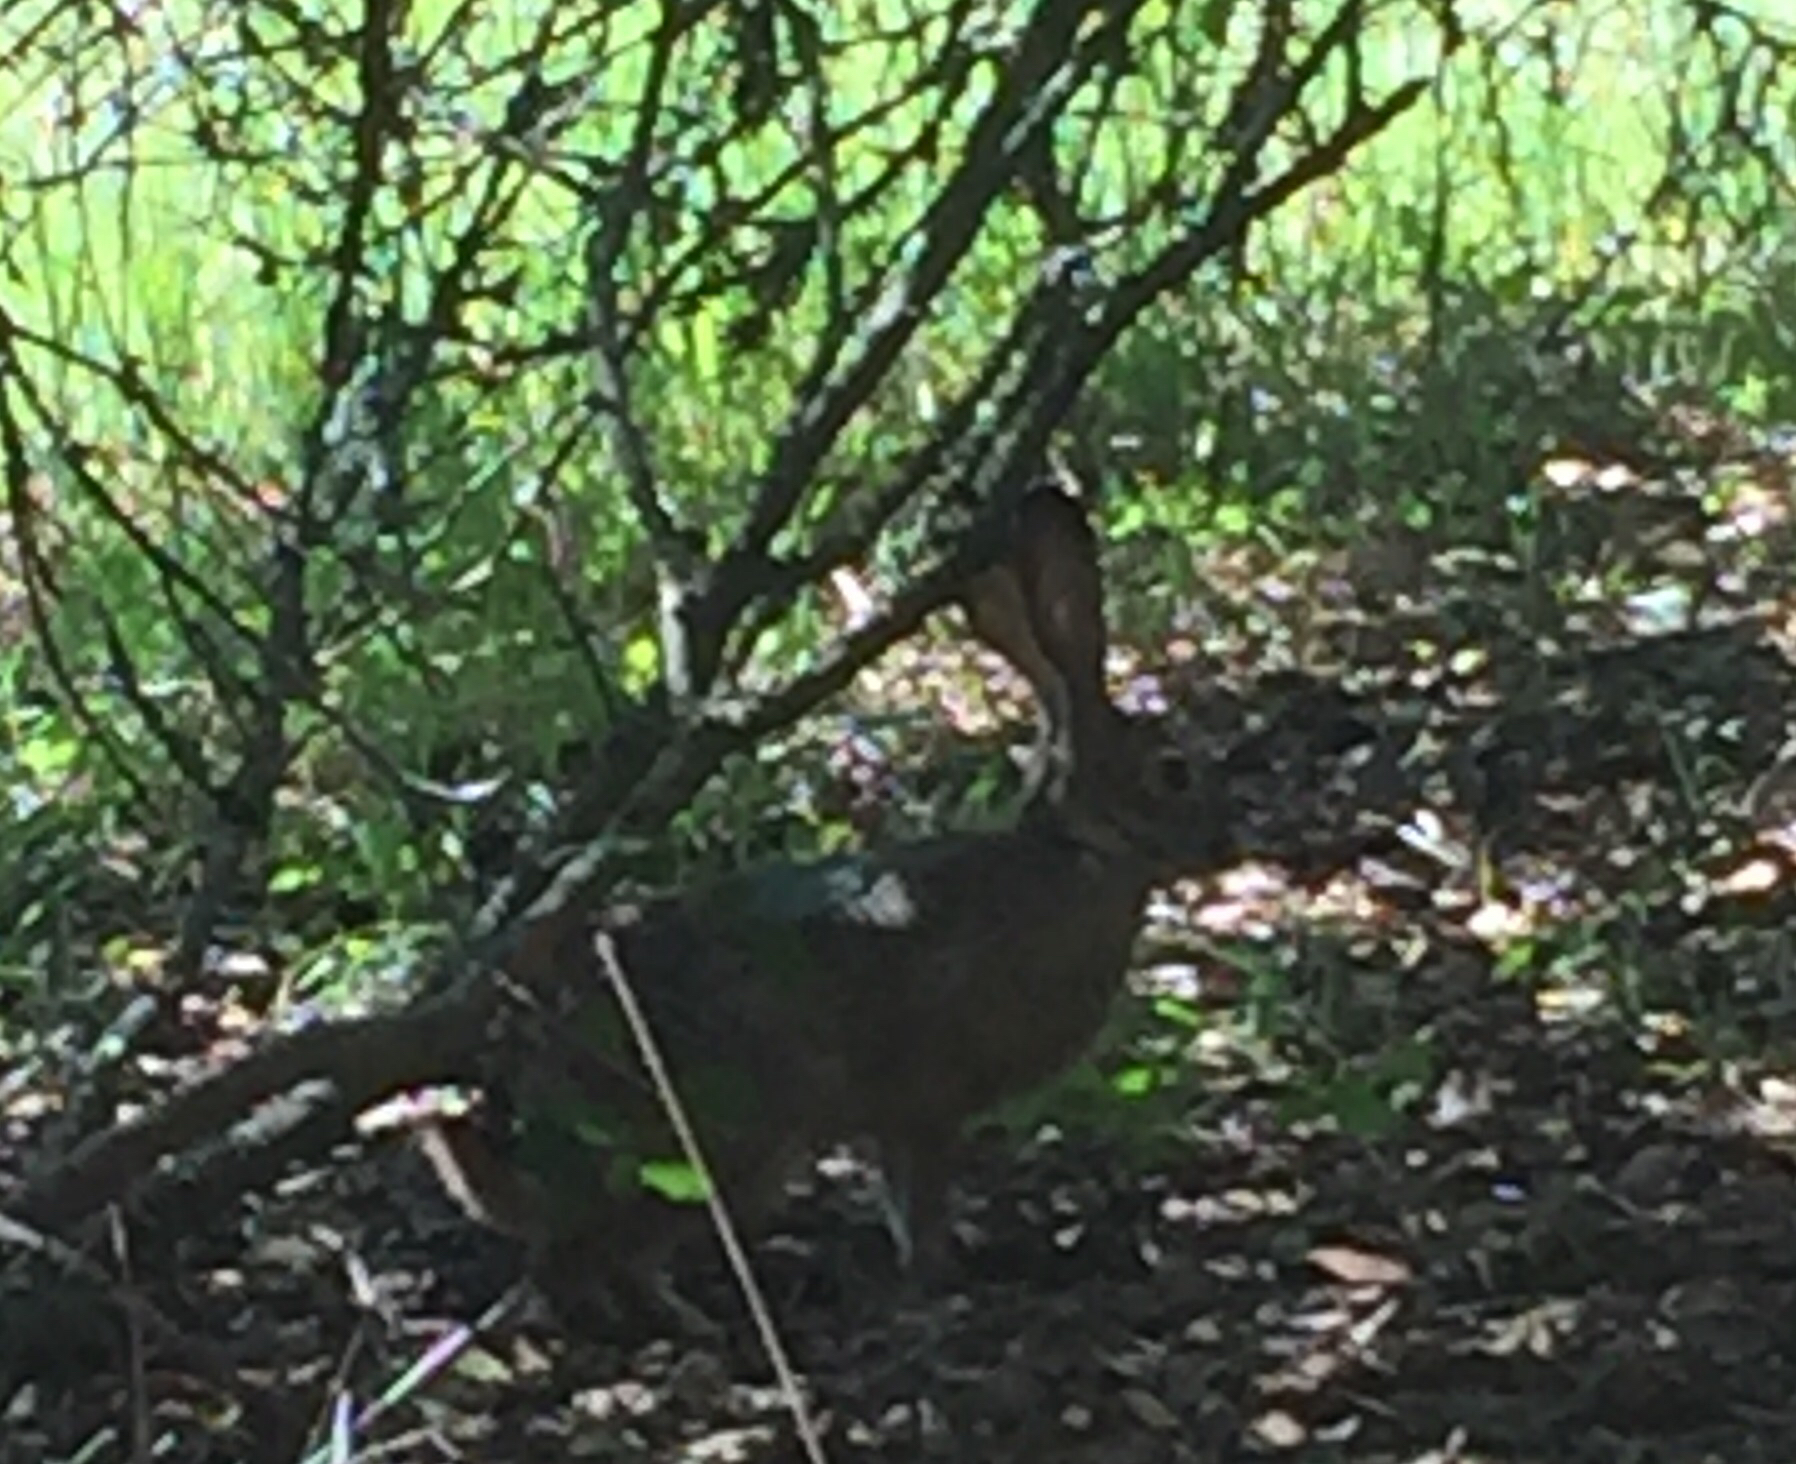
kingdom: Animalia
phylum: Chordata
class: Mammalia
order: Lagomorpha
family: Leporidae
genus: Lepus
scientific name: Lepus californicus
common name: Black-tailed jackrabbit
